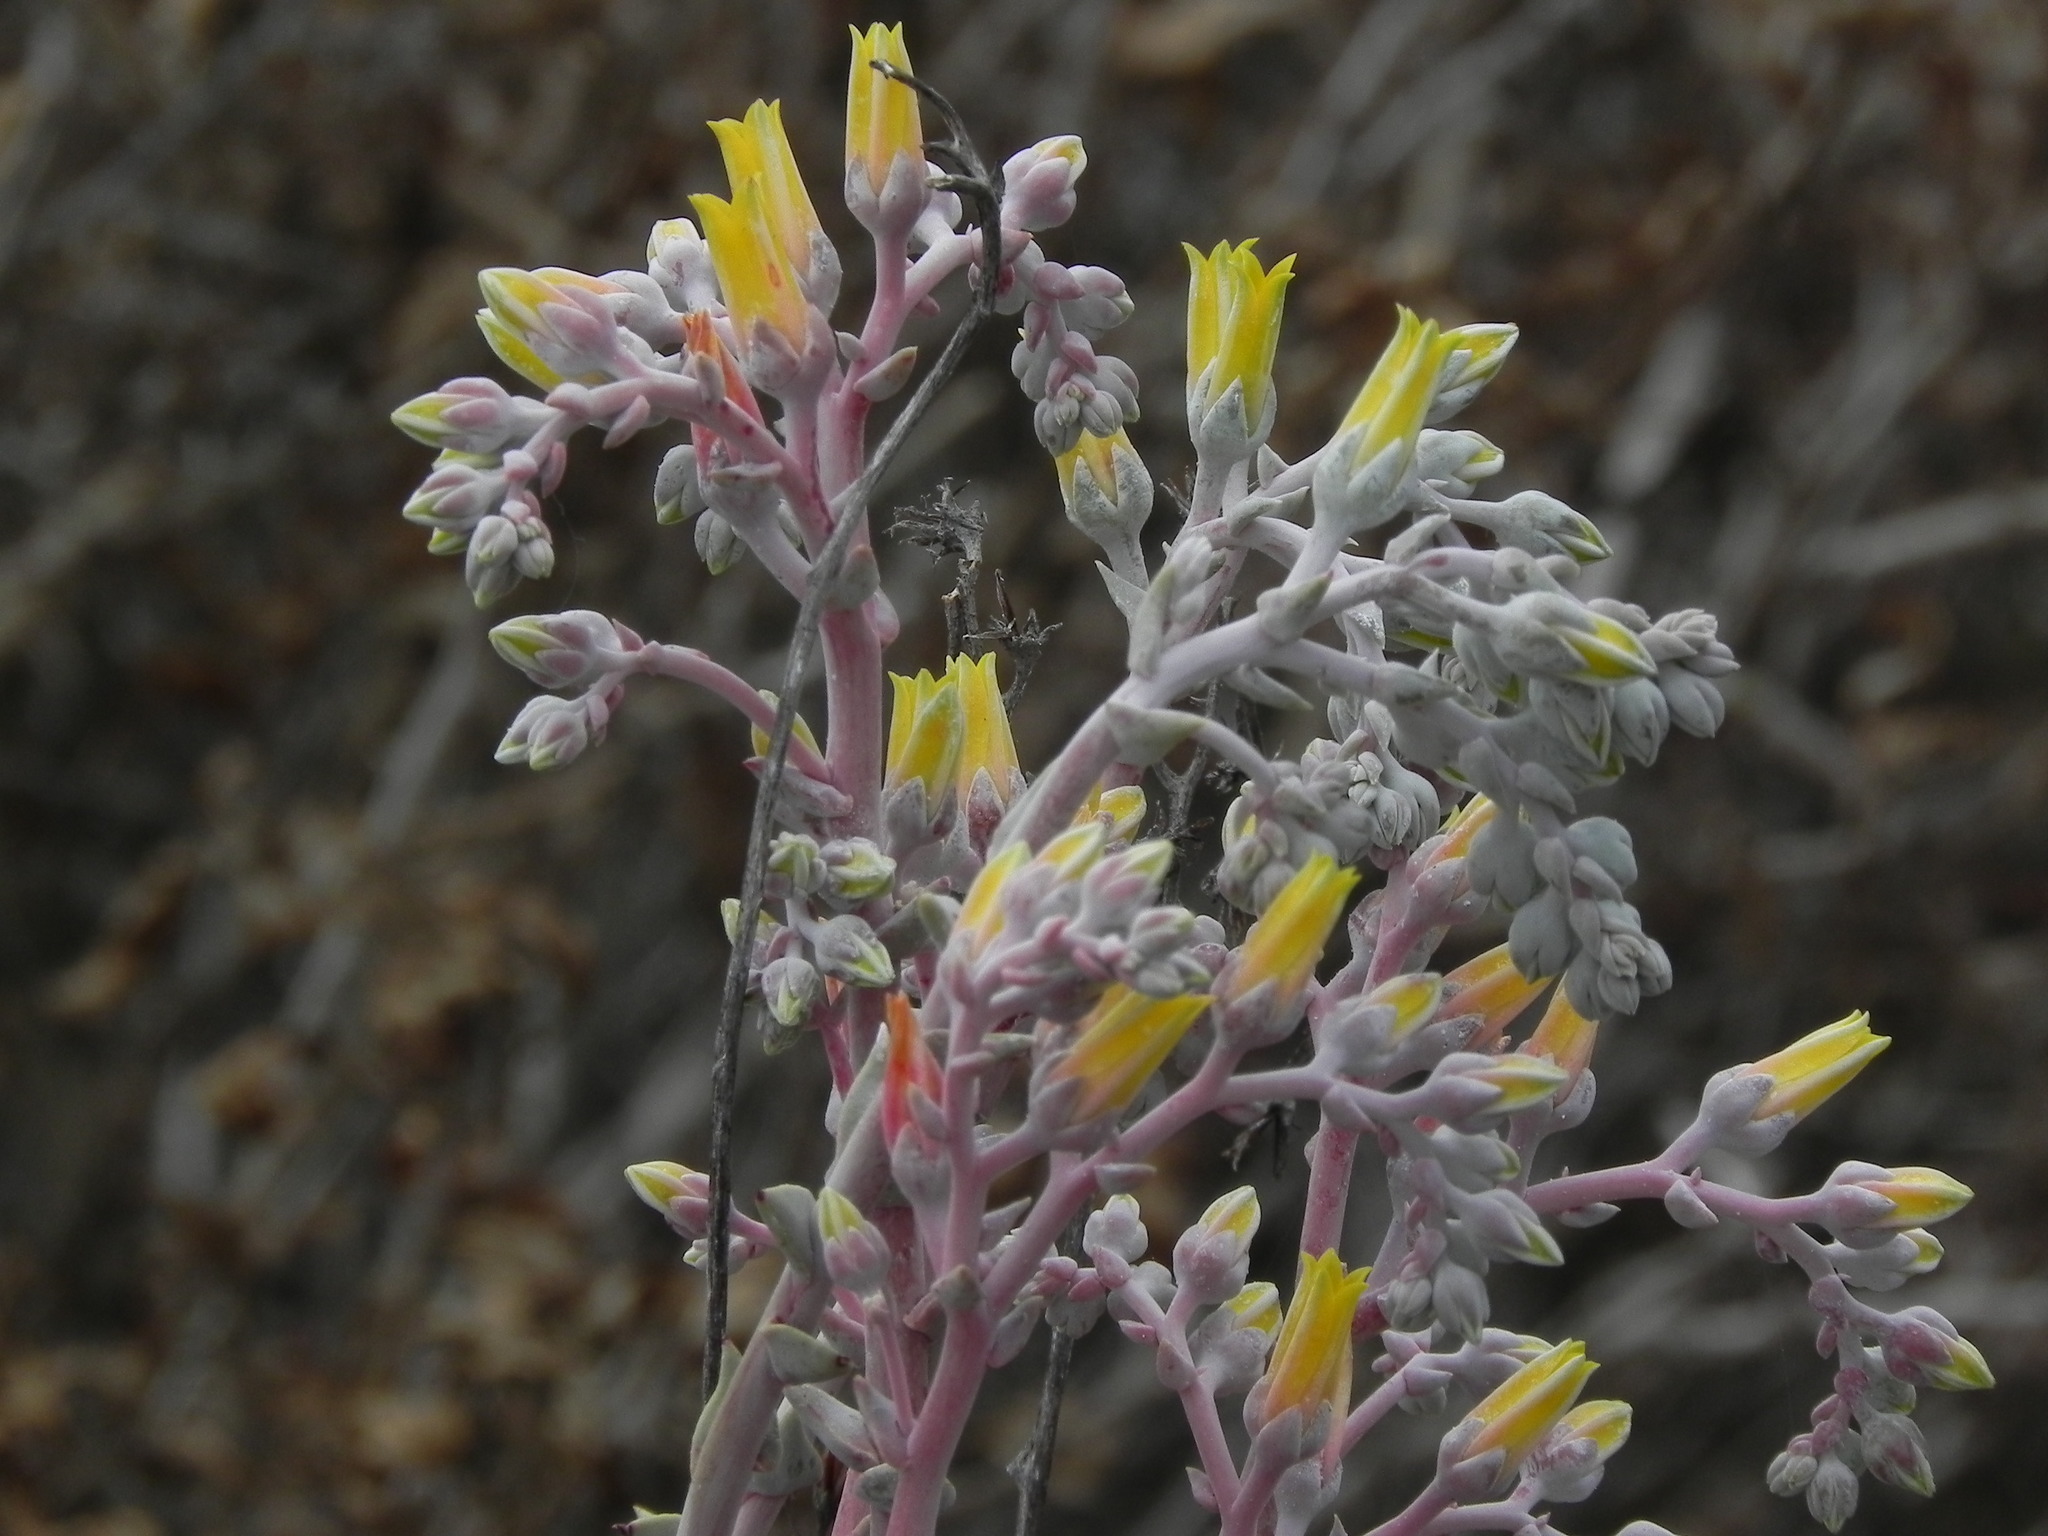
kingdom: Plantae
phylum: Tracheophyta
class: Magnoliopsida
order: Saxifragales
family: Crassulaceae
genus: Dudleya
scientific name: Dudleya caespitosa
